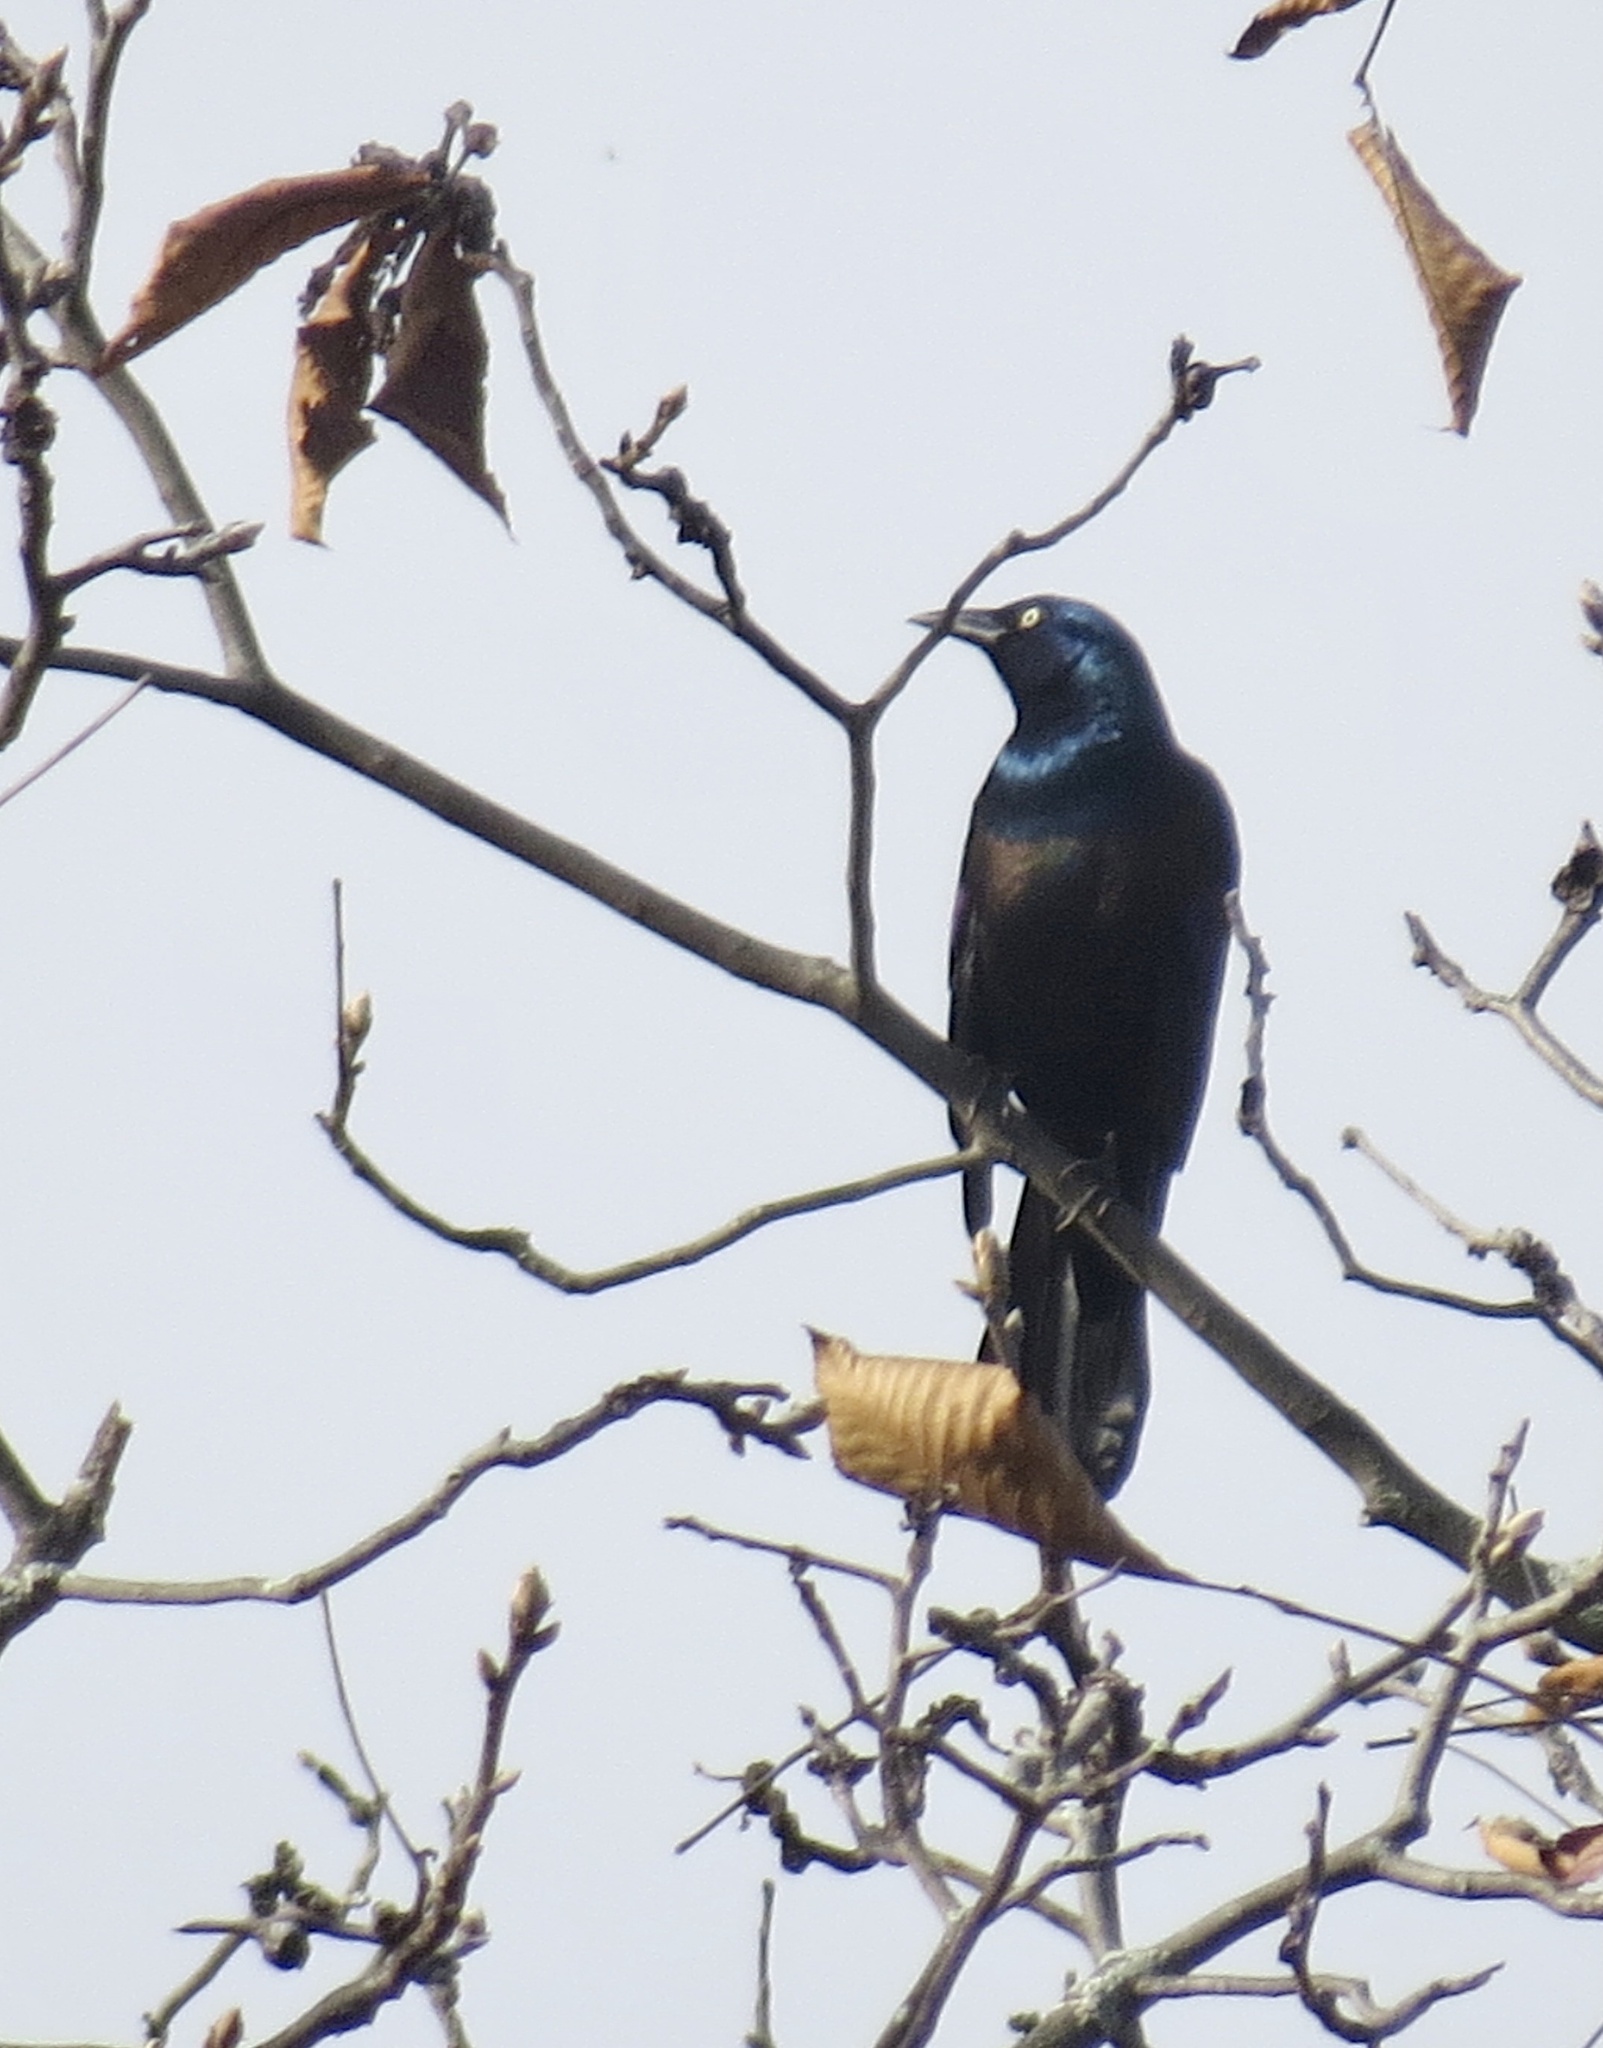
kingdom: Animalia
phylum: Chordata
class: Aves
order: Passeriformes
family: Icteridae
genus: Quiscalus
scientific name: Quiscalus quiscula
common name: Common grackle
